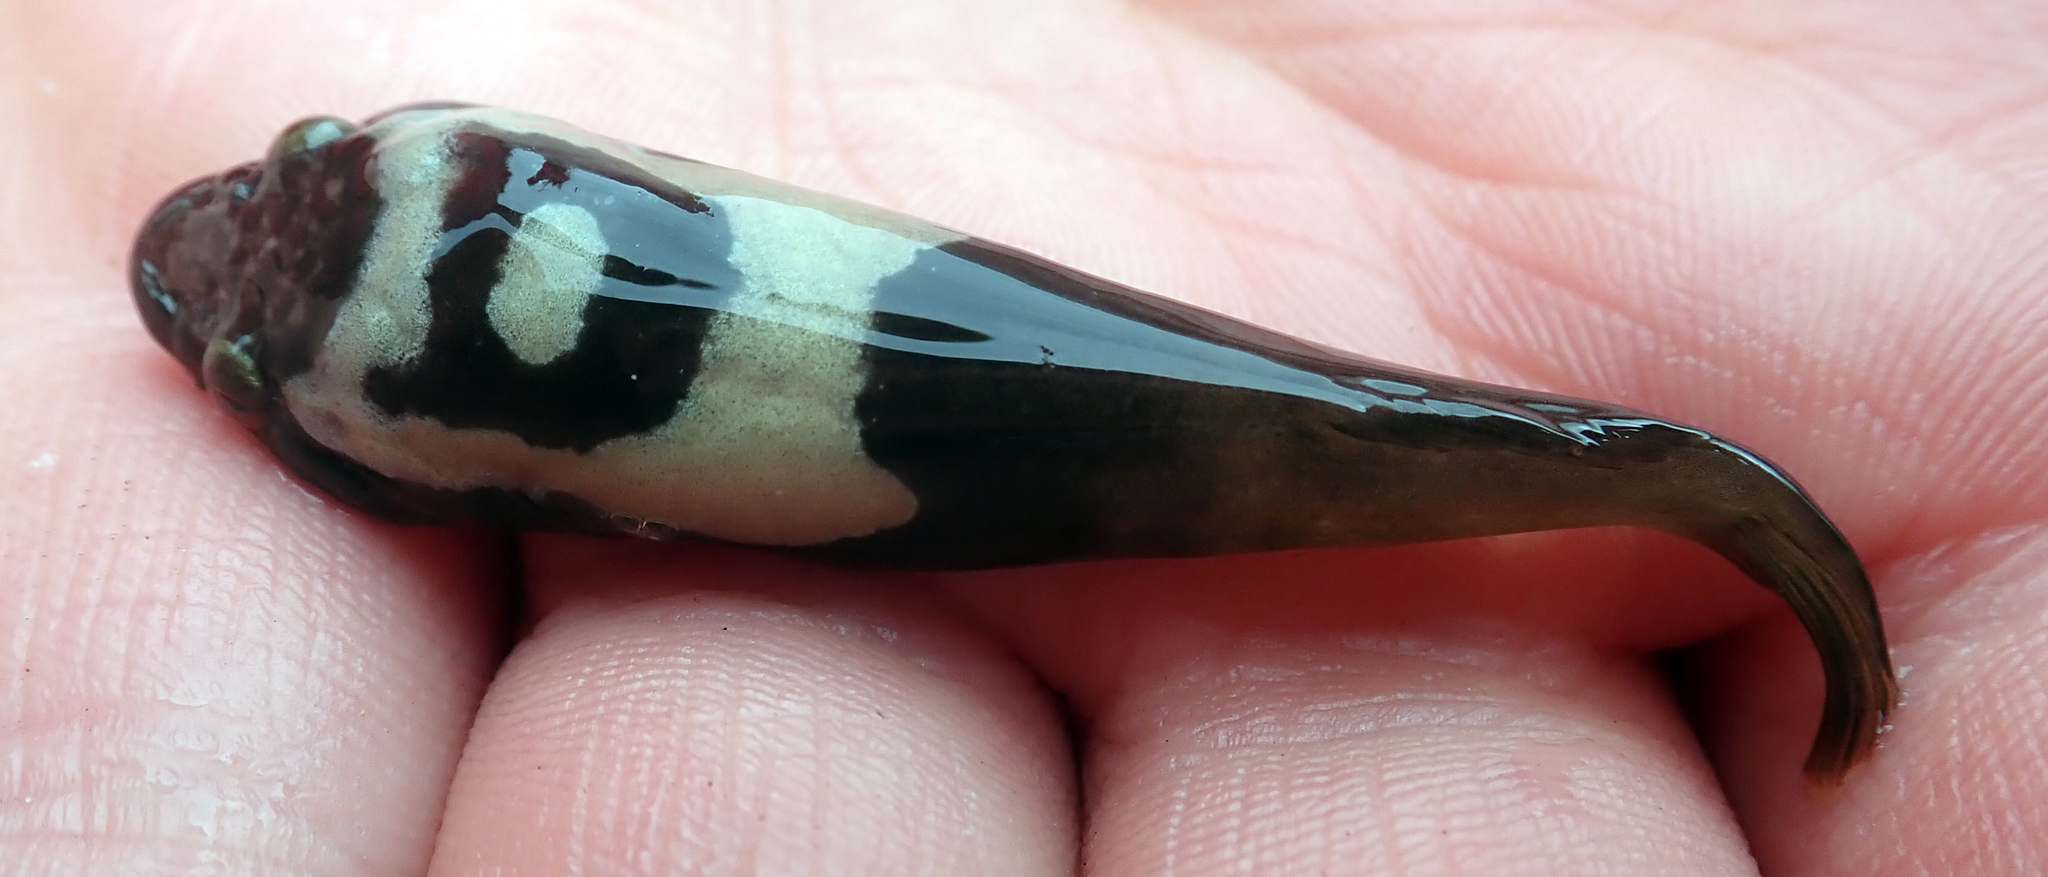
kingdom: Animalia
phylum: Chordata
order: Gobiesociformes
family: Gobiesocidae
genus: Trachelochismus
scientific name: Trachelochismus pinnulatus
